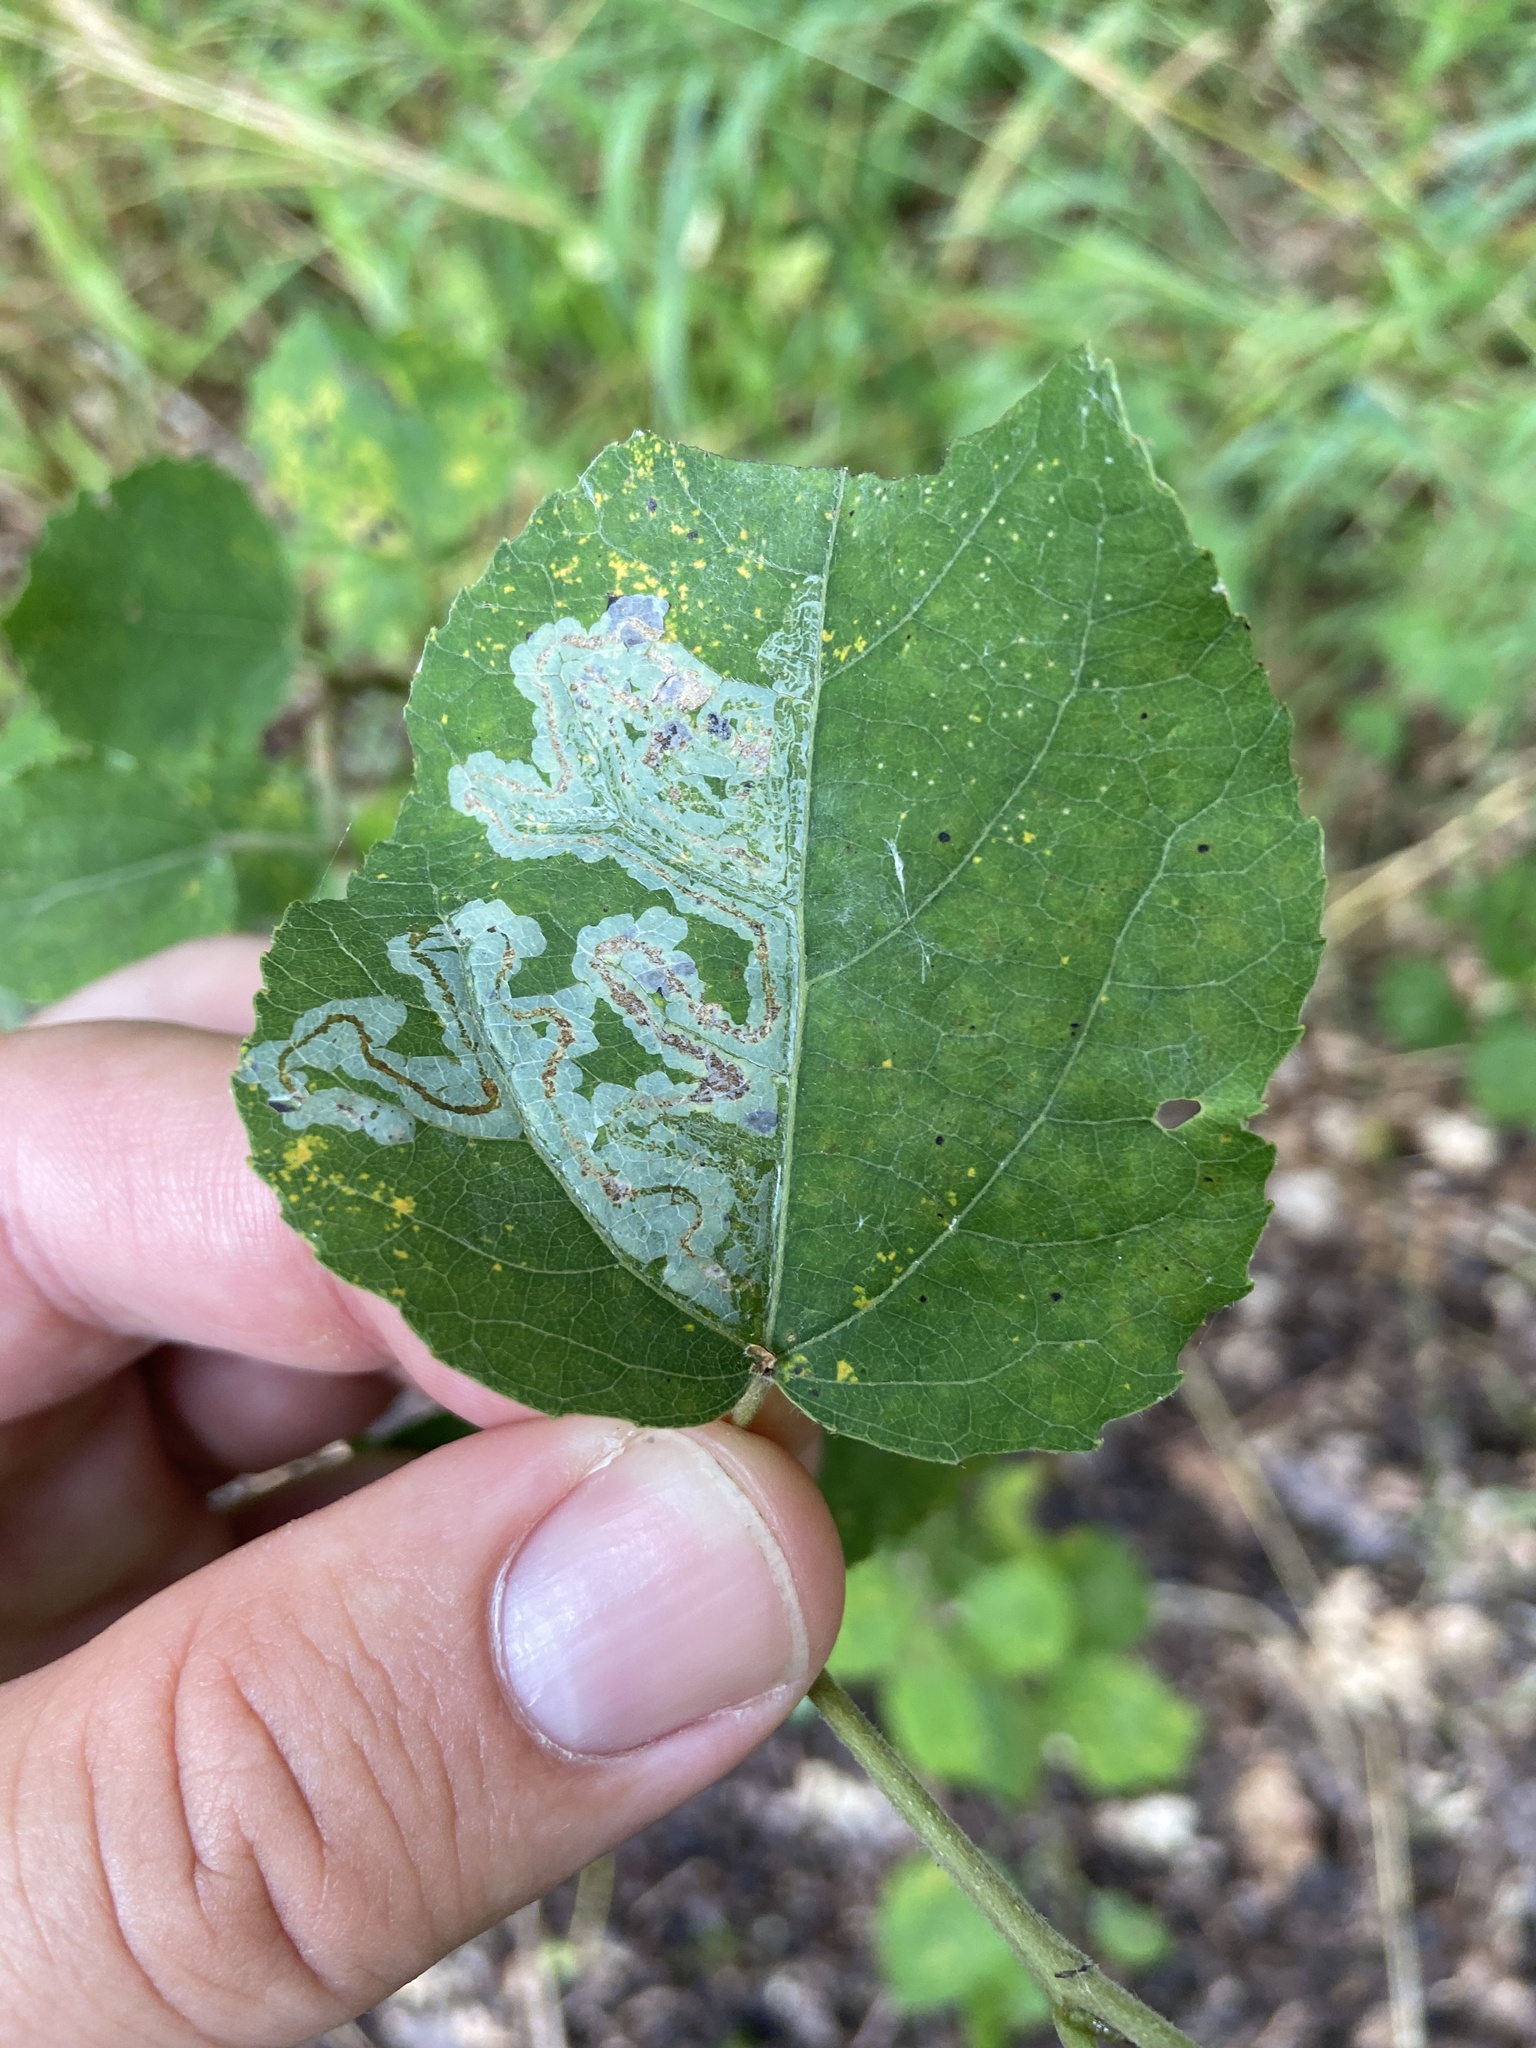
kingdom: Animalia
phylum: Arthropoda
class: Insecta
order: Lepidoptera
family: Gracillariidae
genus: Phyllocnistis
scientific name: Phyllocnistis labyrinthella
